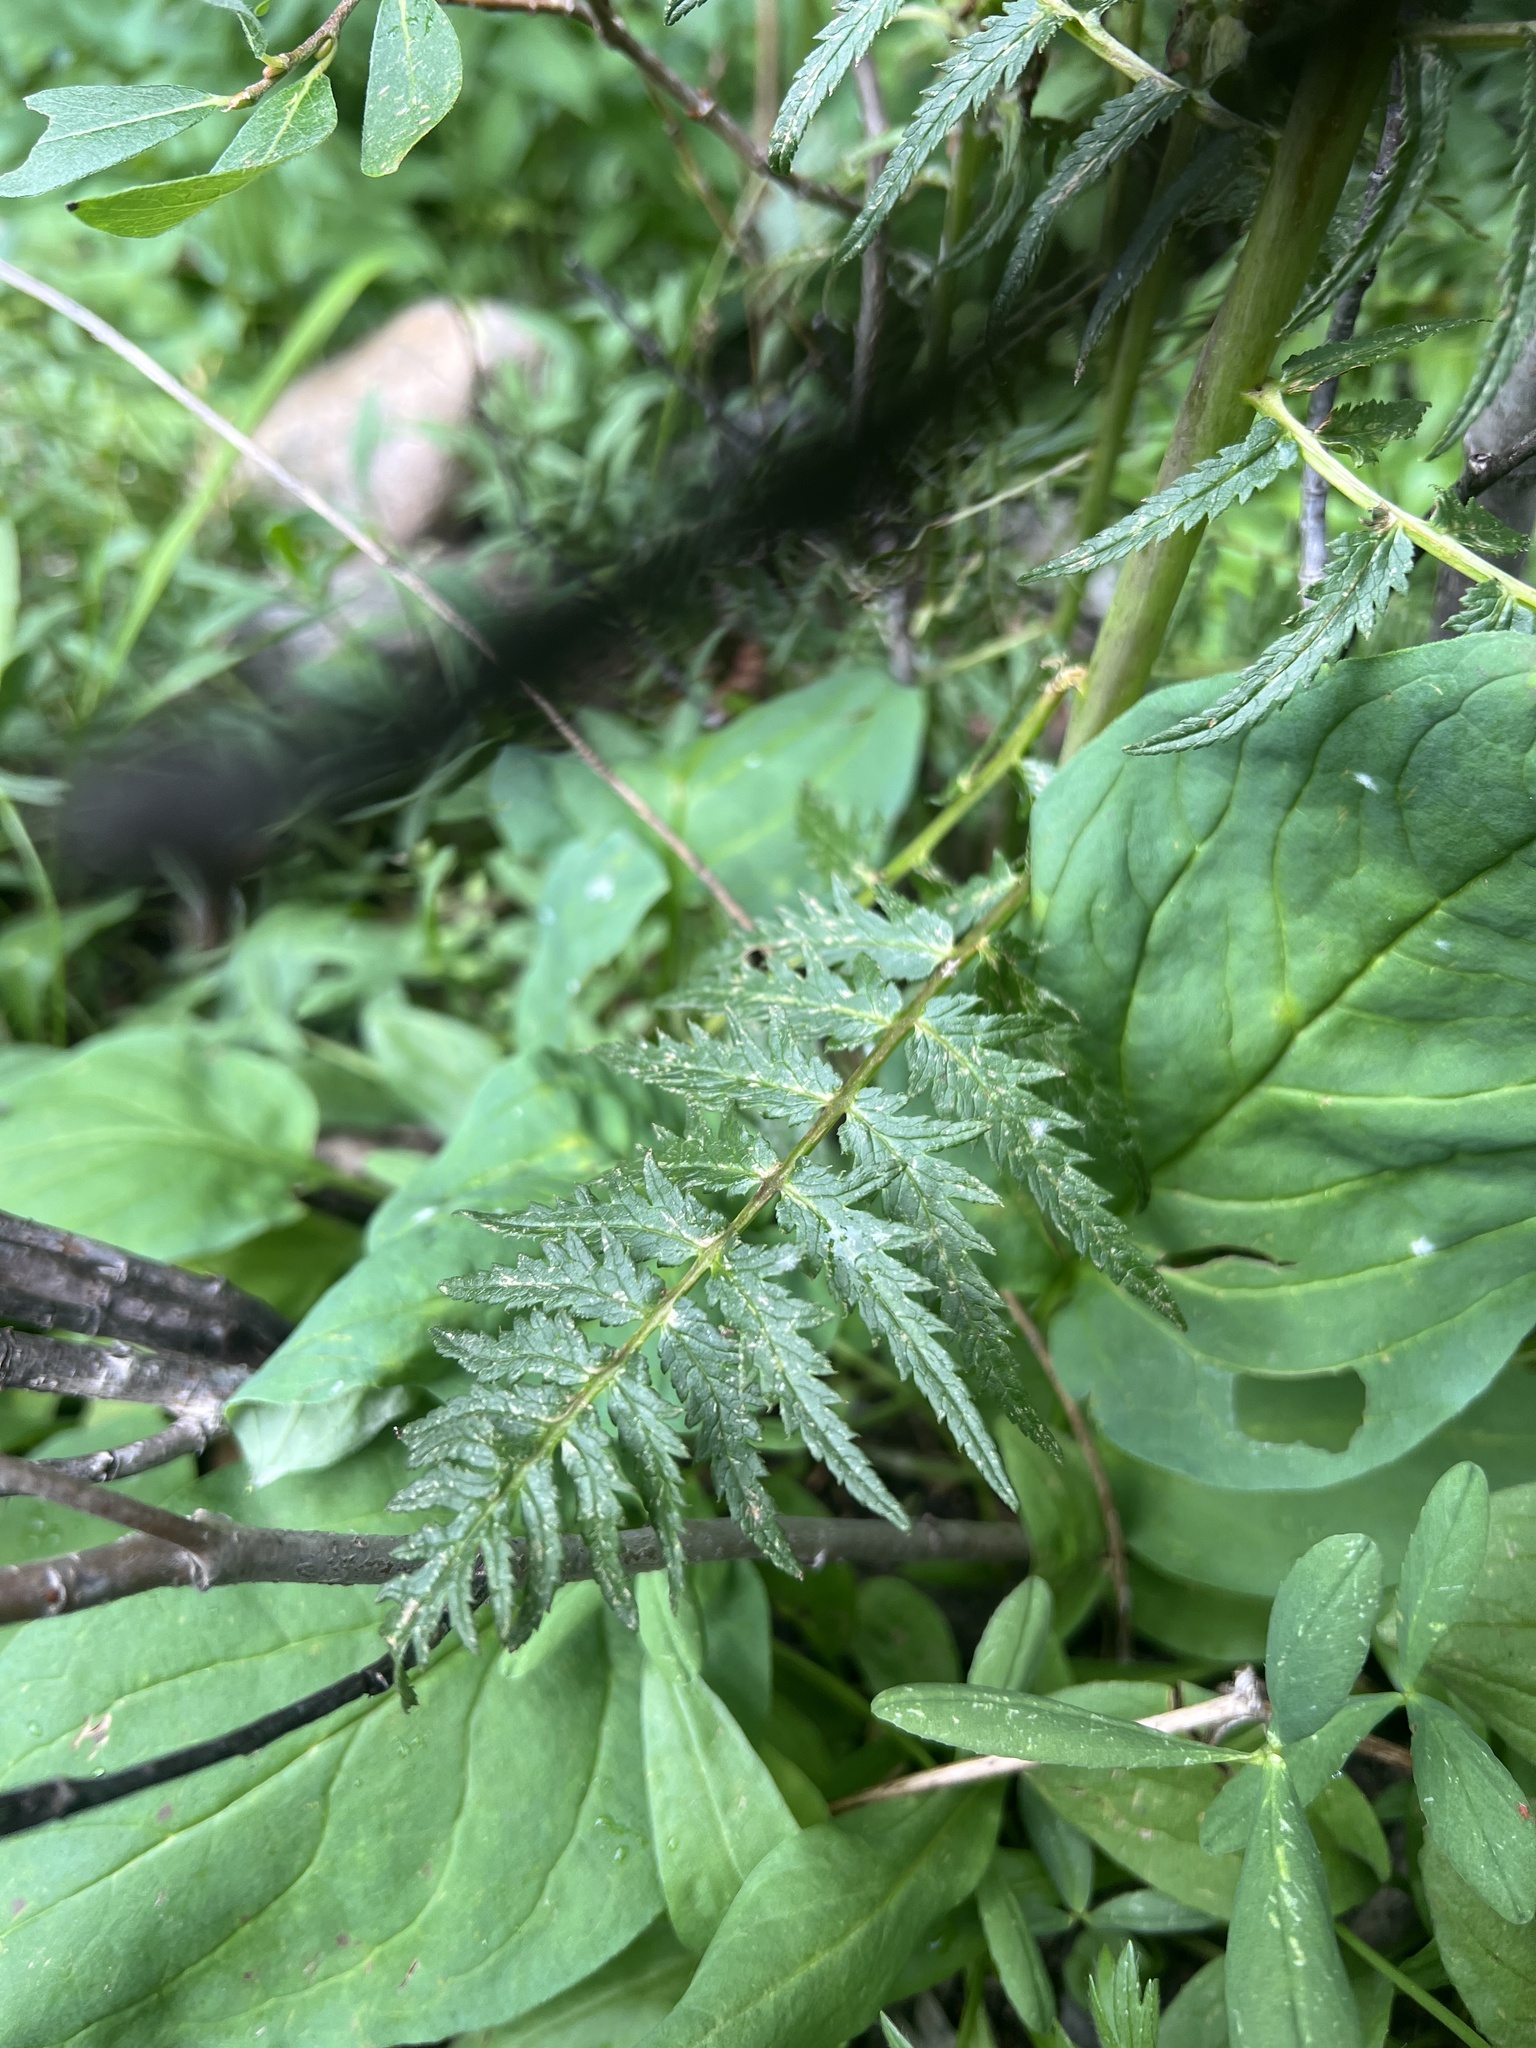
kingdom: Plantae
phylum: Tracheophyta
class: Magnoliopsida
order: Lamiales
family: Orobanchaceae
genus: Pedicularis
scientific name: Pedicularis procera
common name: Gray's lousewort
